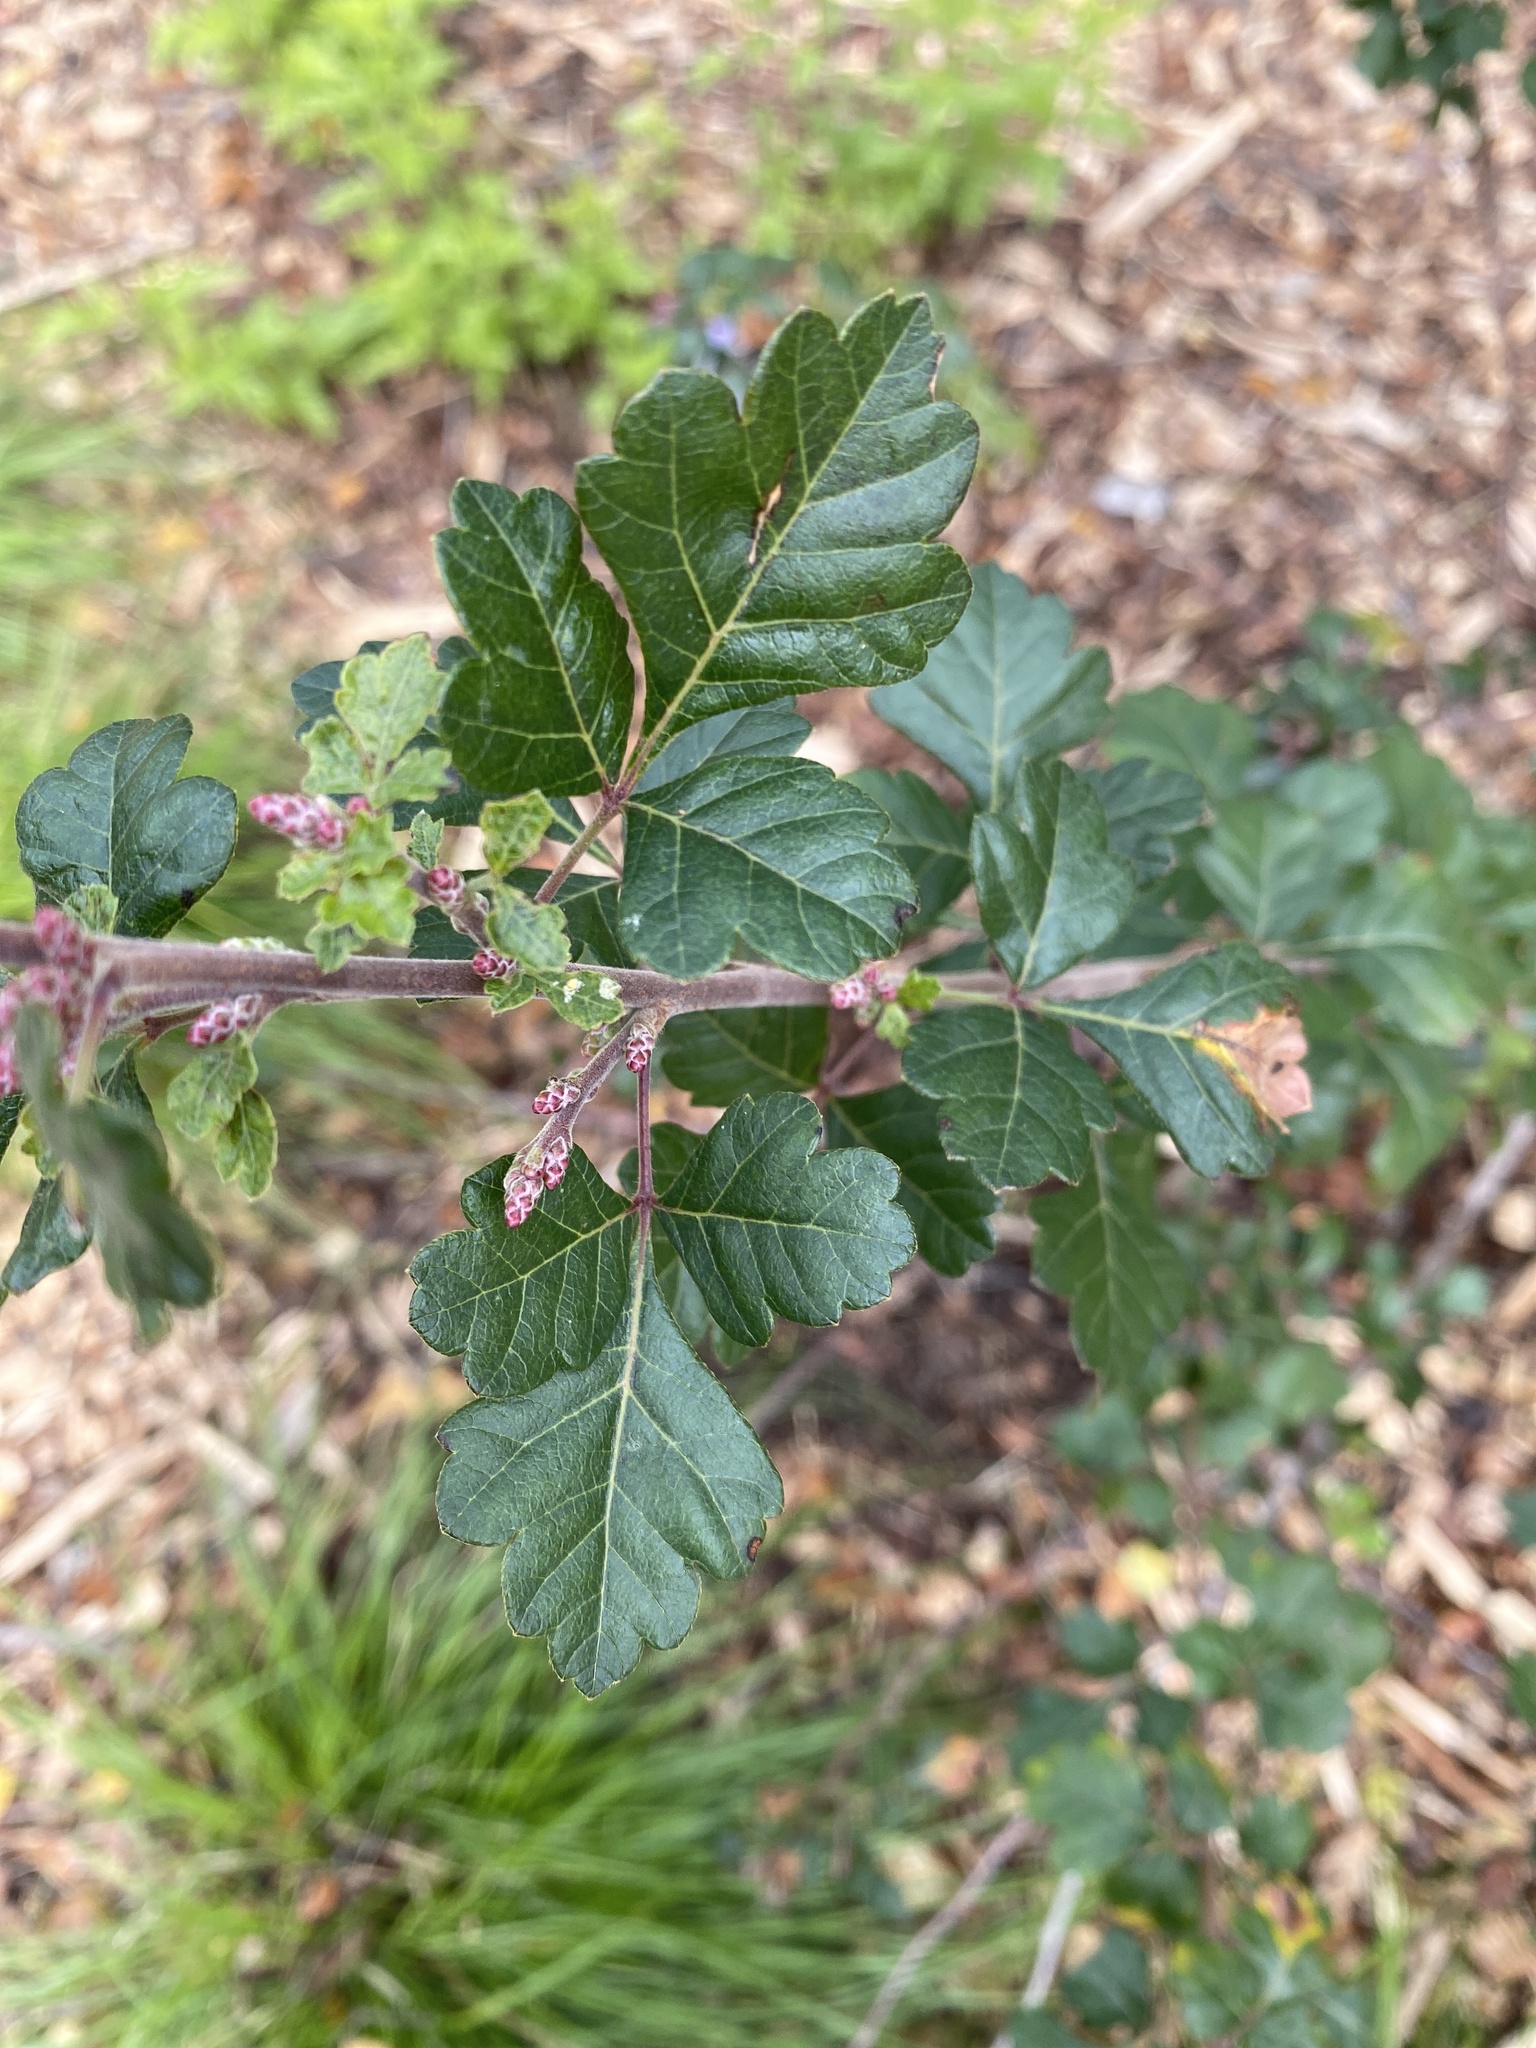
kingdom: Plantae
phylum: Tracheophyta
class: Magnoliopsida
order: Sapindales
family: Anacardiaceae
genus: Rhus
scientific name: Rhus aromatica
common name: Aromatic sumac
